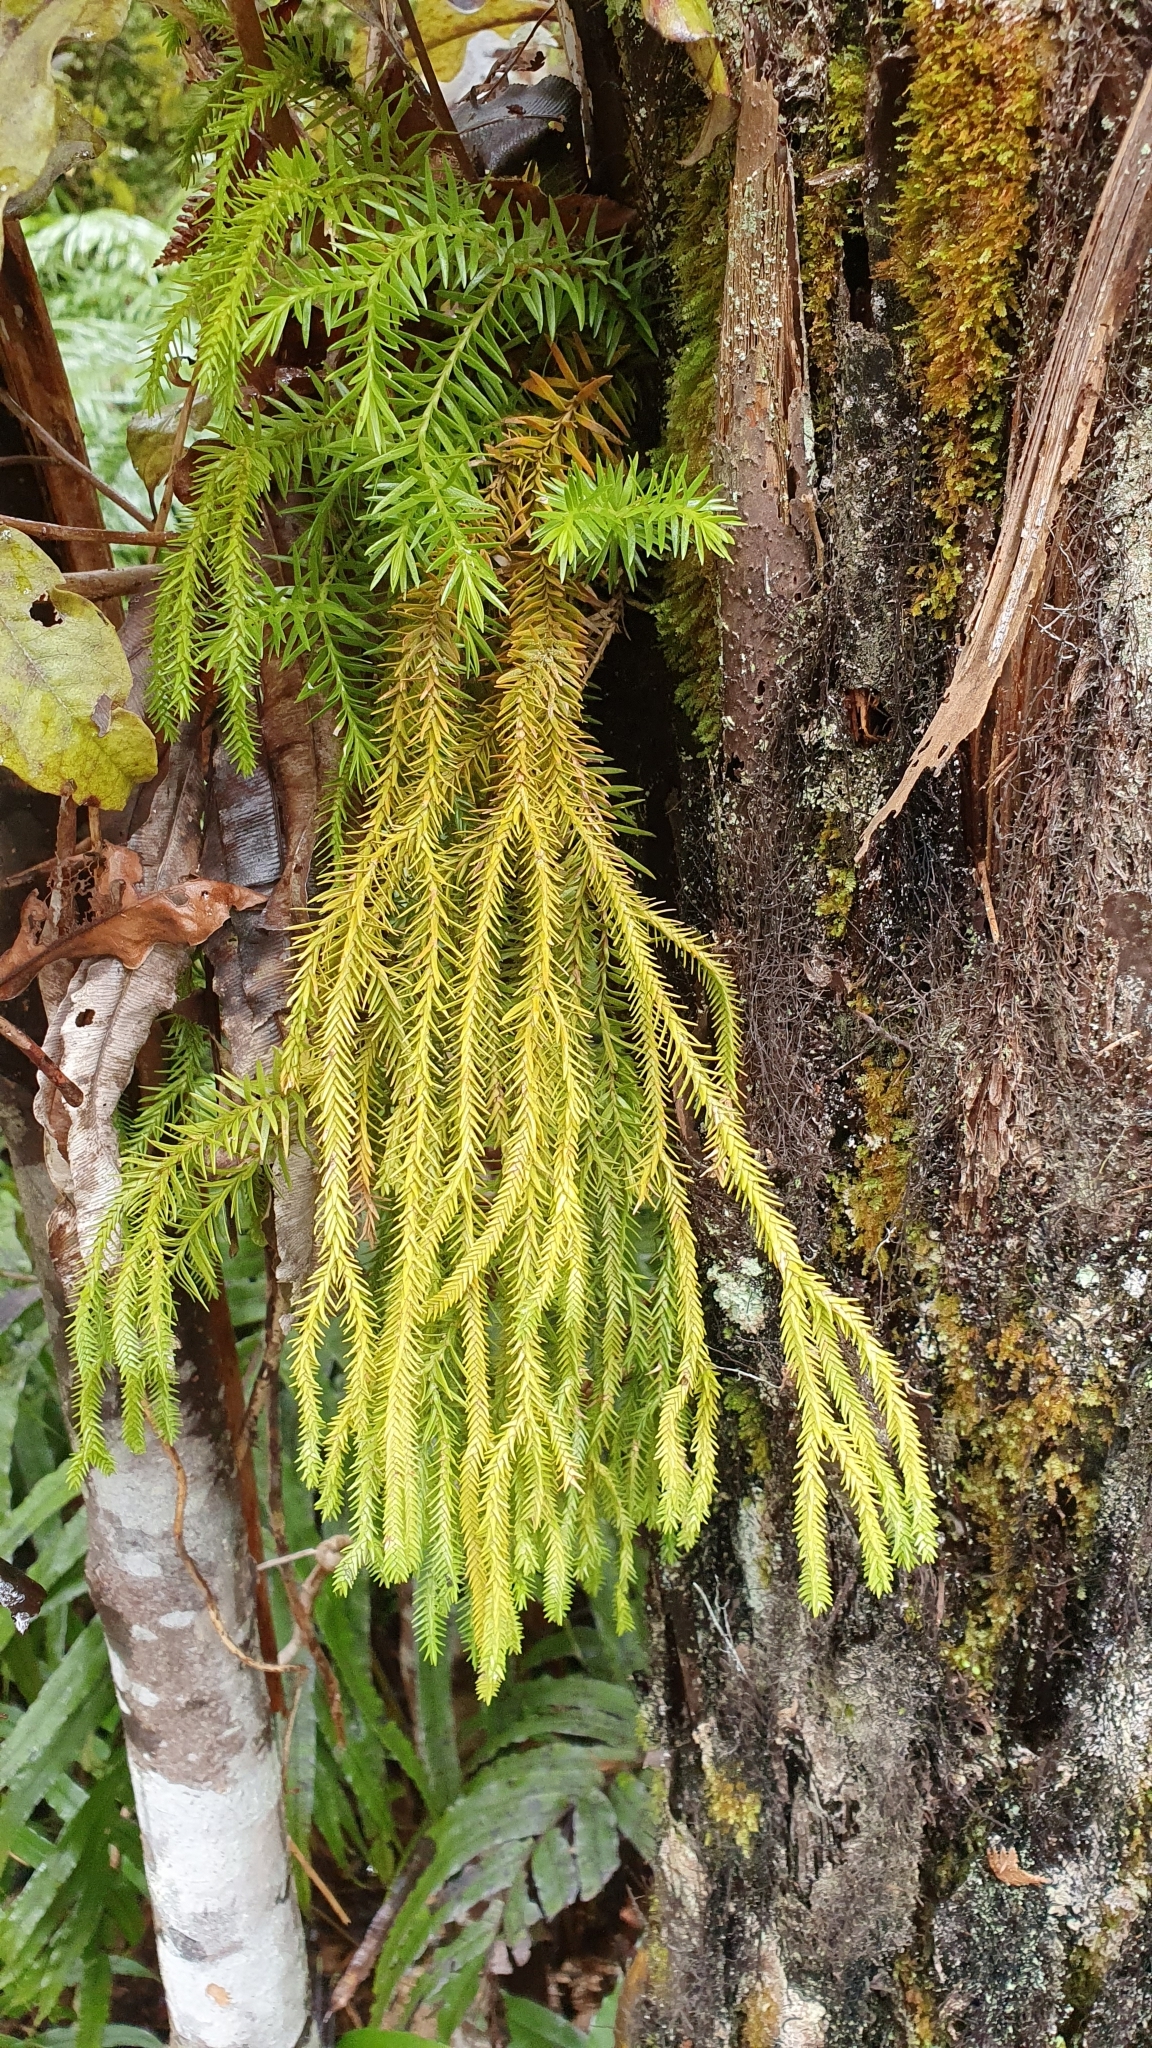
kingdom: Plantae
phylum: Tracheophyta
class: Lycopodiopsida
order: Lycopodiales
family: Lycopodiaceae
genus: Phlegmariurus
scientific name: Phlegmariurus varius
